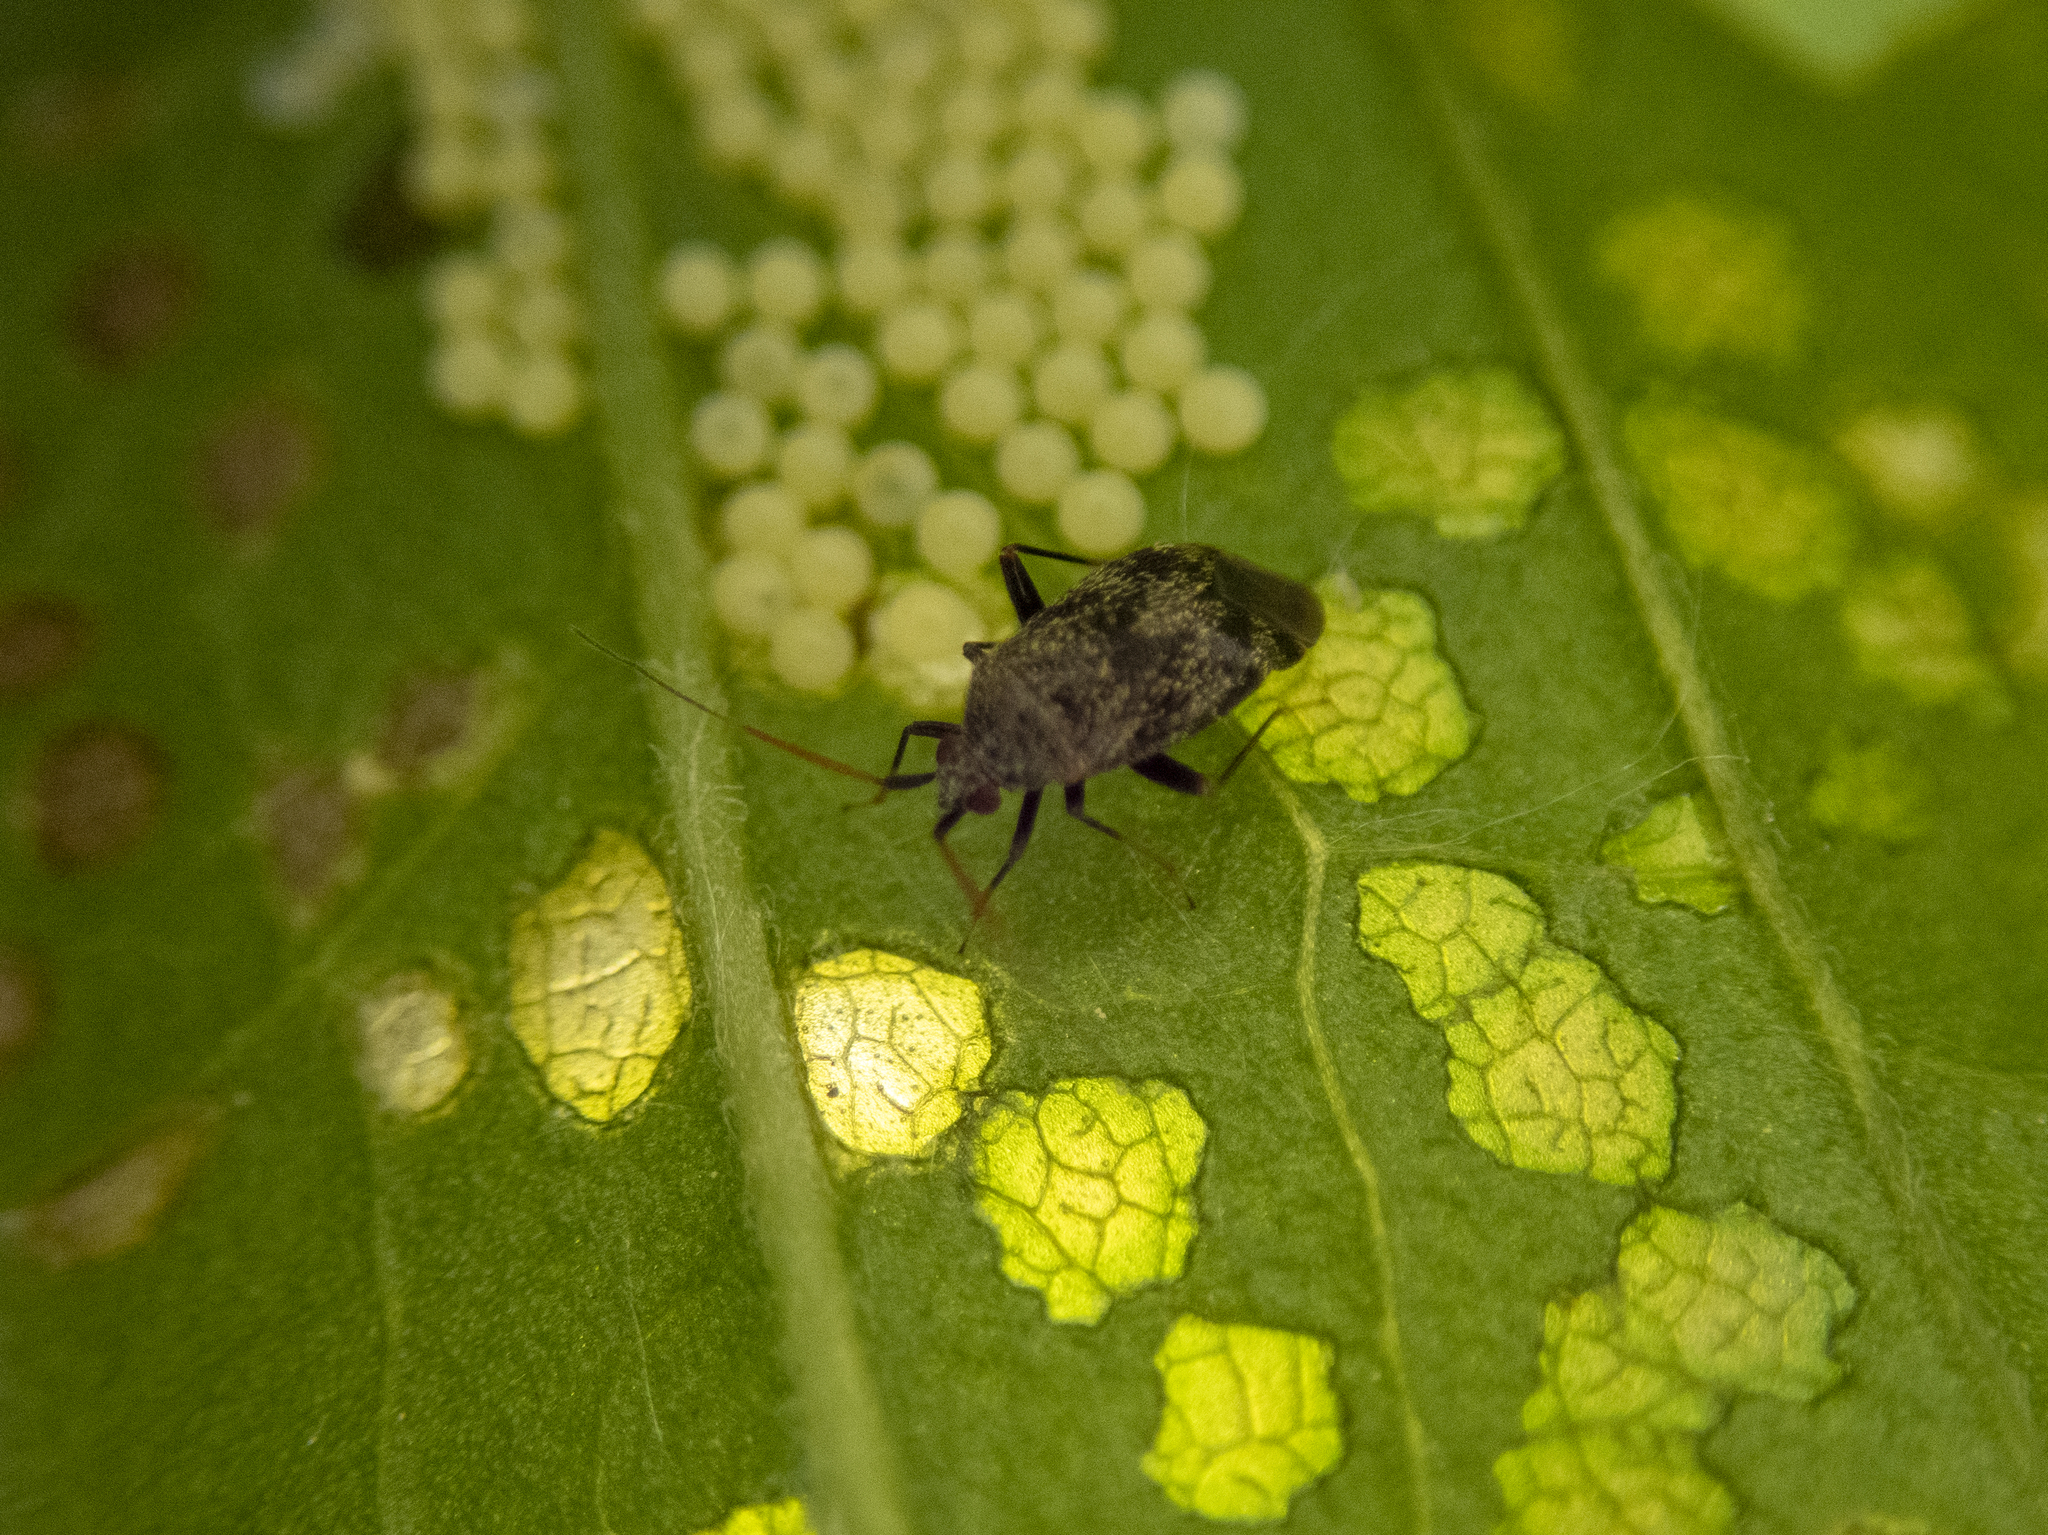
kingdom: Animalia
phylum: Arthropoda
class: Insecta
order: Hemiptera
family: Miridae
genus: Texocoris
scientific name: Texocoris nigrellus
